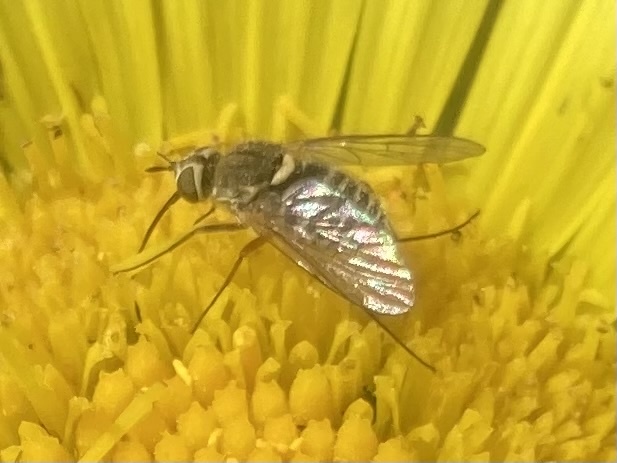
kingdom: Animalia
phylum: Arthropoda
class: Insecta
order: Diptera
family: Bombyliidae
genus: Phthiria
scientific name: Phthiria laeta
